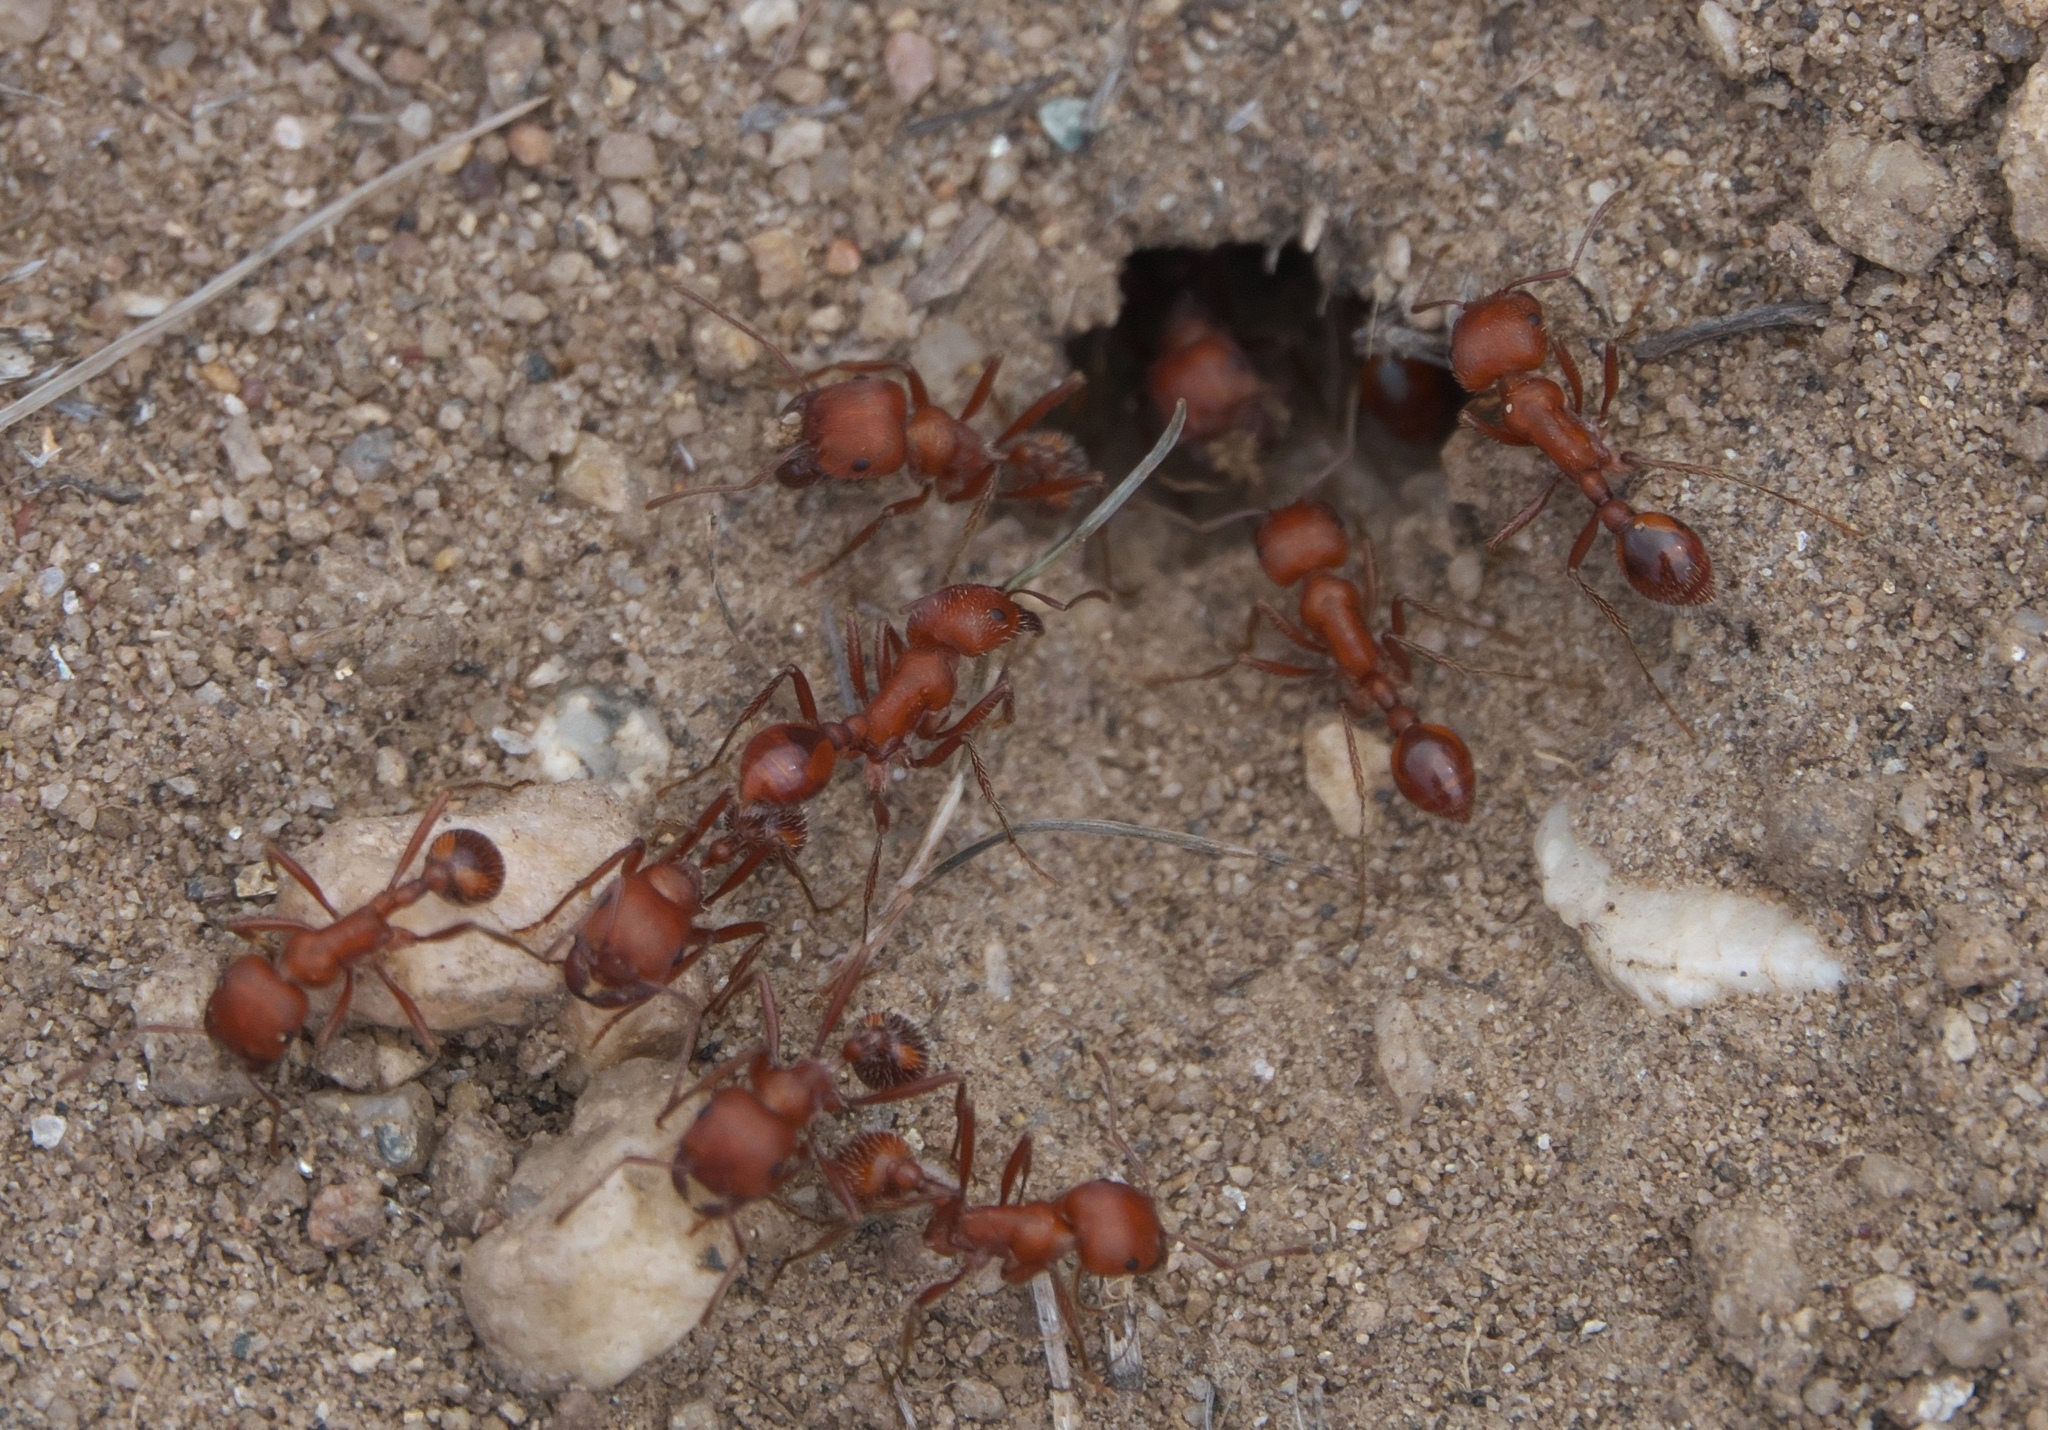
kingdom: Animalia
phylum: Arthropoda
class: Insecta
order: Hymenoptera
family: Formicidae
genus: Pogonomyrmex
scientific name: Pogonomyrmex maricopa
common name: Maricopa harvester ant
